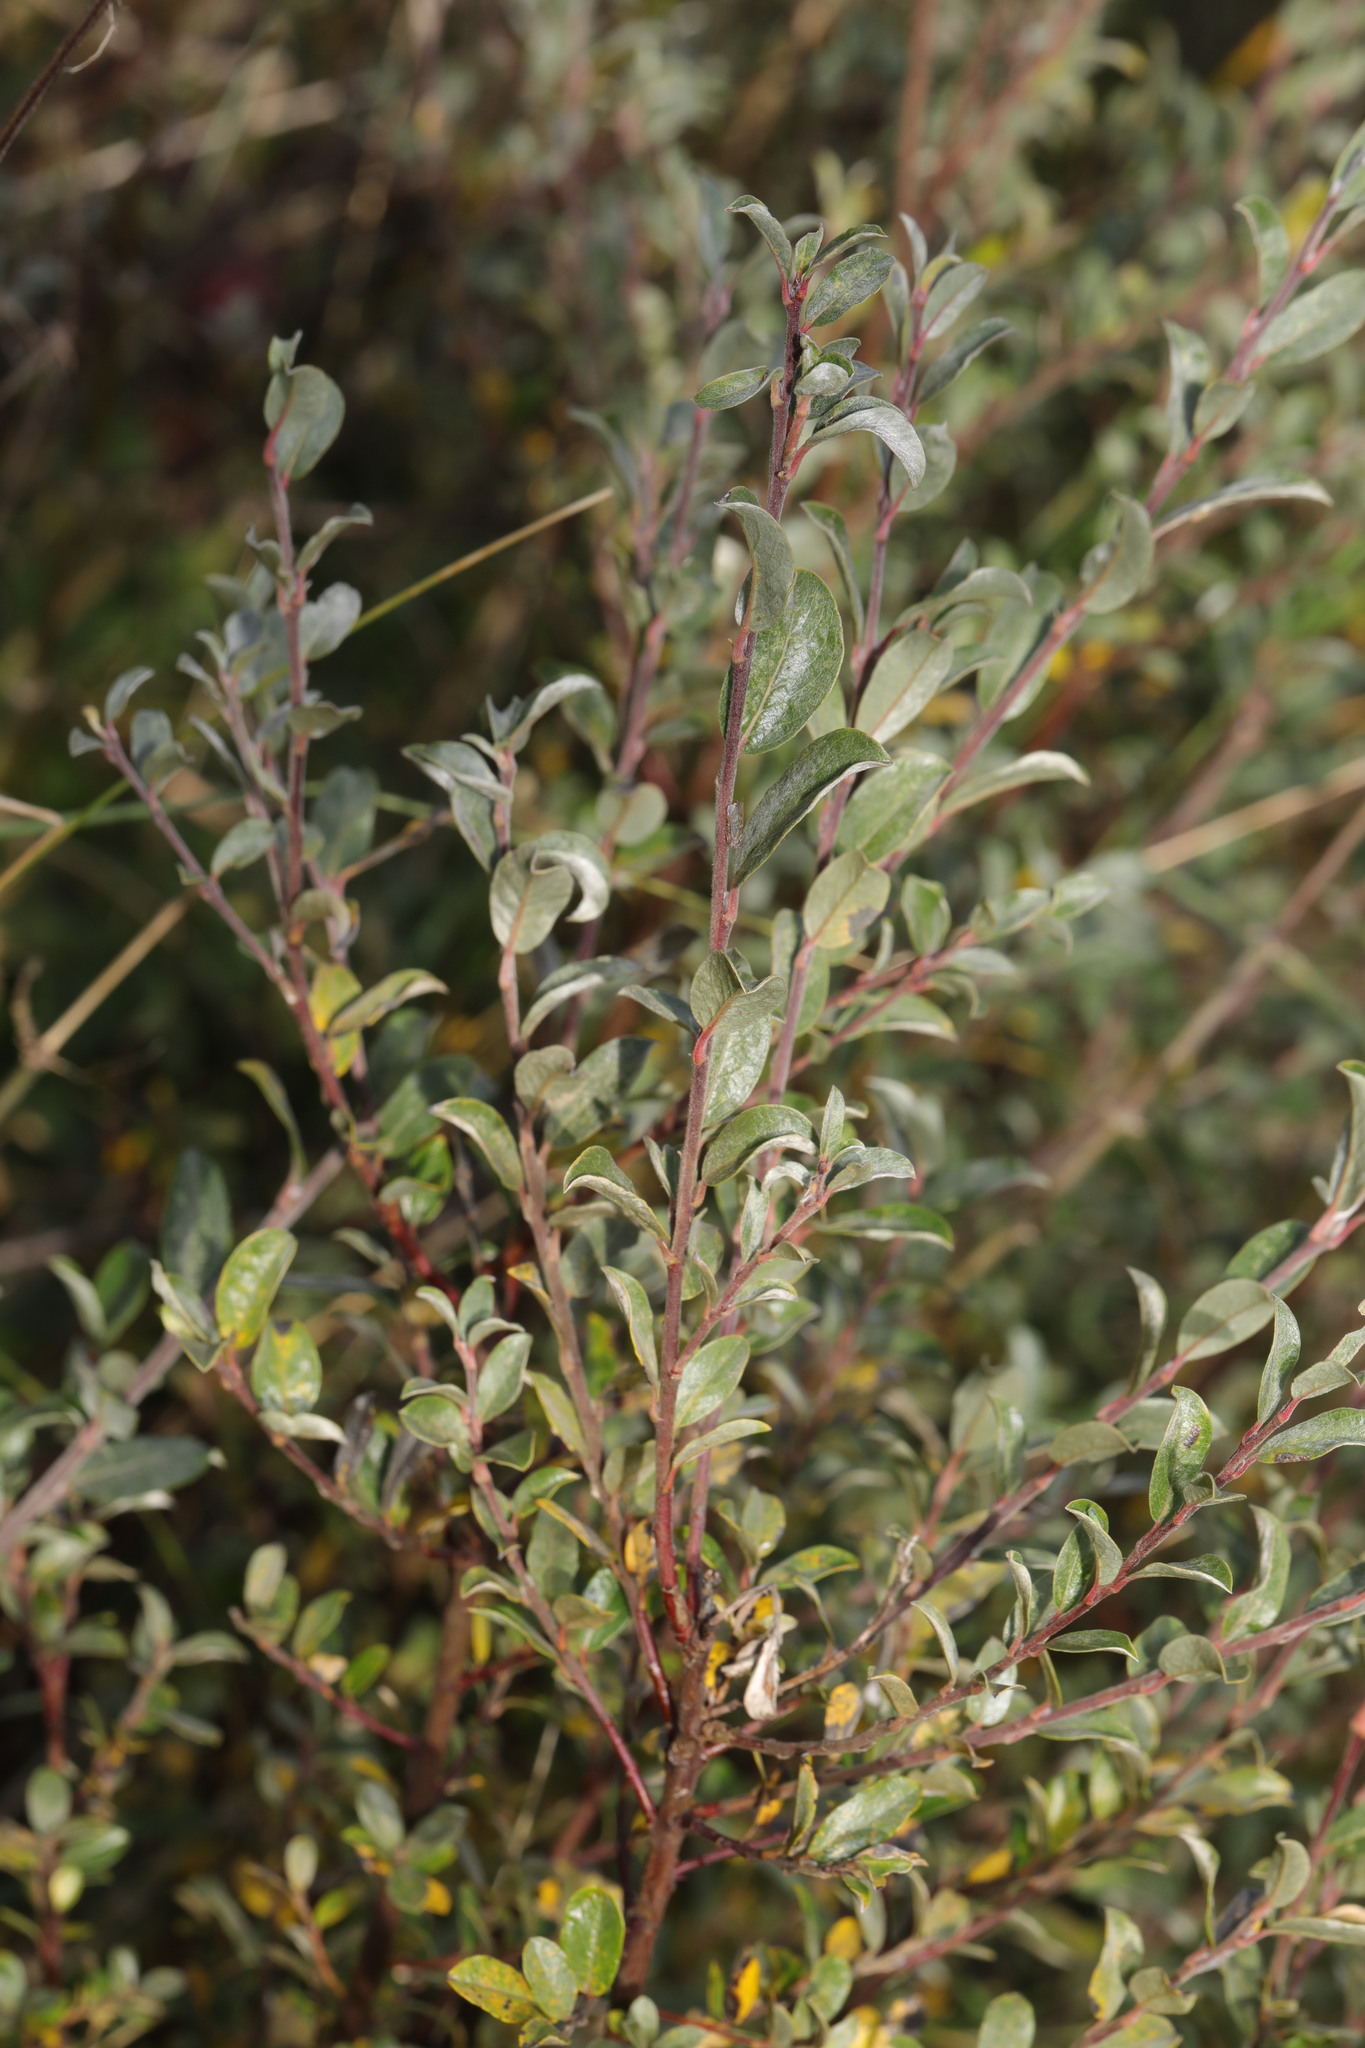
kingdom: Plantae
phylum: Tracheophyta
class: Magnoliopsida
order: Malpighiales
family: Salicaceae
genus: Salix
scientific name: Salix repens
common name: Creeping willow
